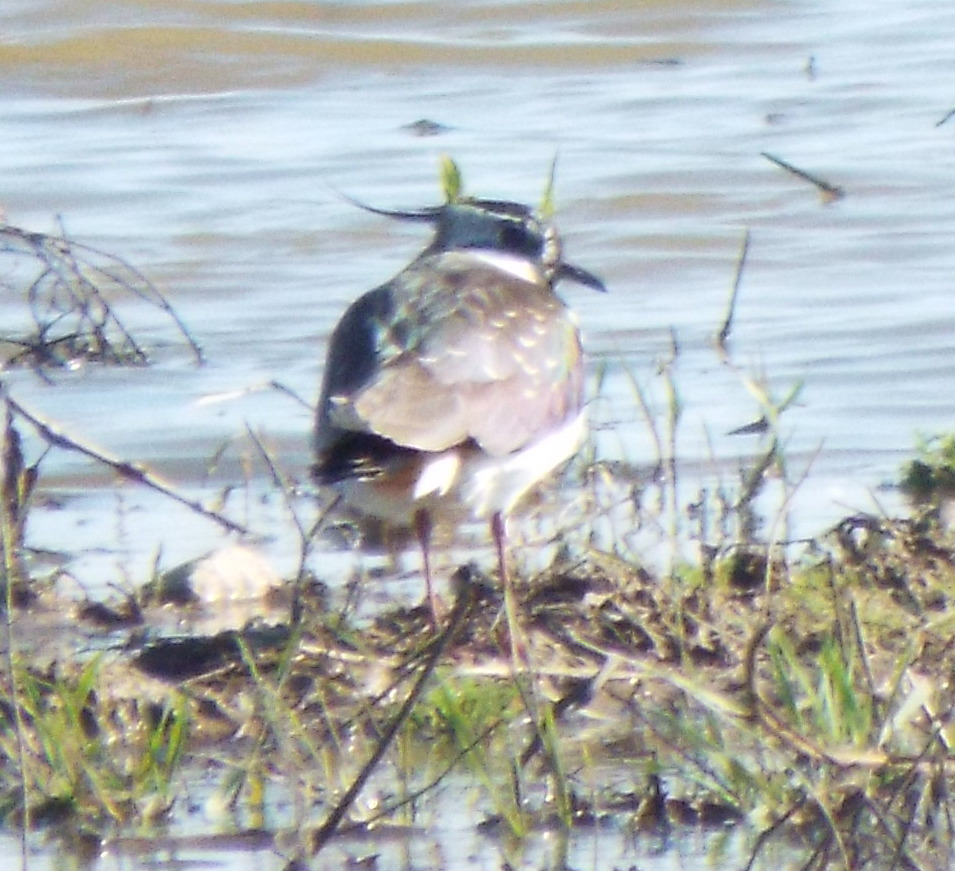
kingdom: Animalia
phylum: Chordata
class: Aves
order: Charadriiformes
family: Charadriidae
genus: Vanellus
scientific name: Vanellus vanellus
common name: Northern lapwing
